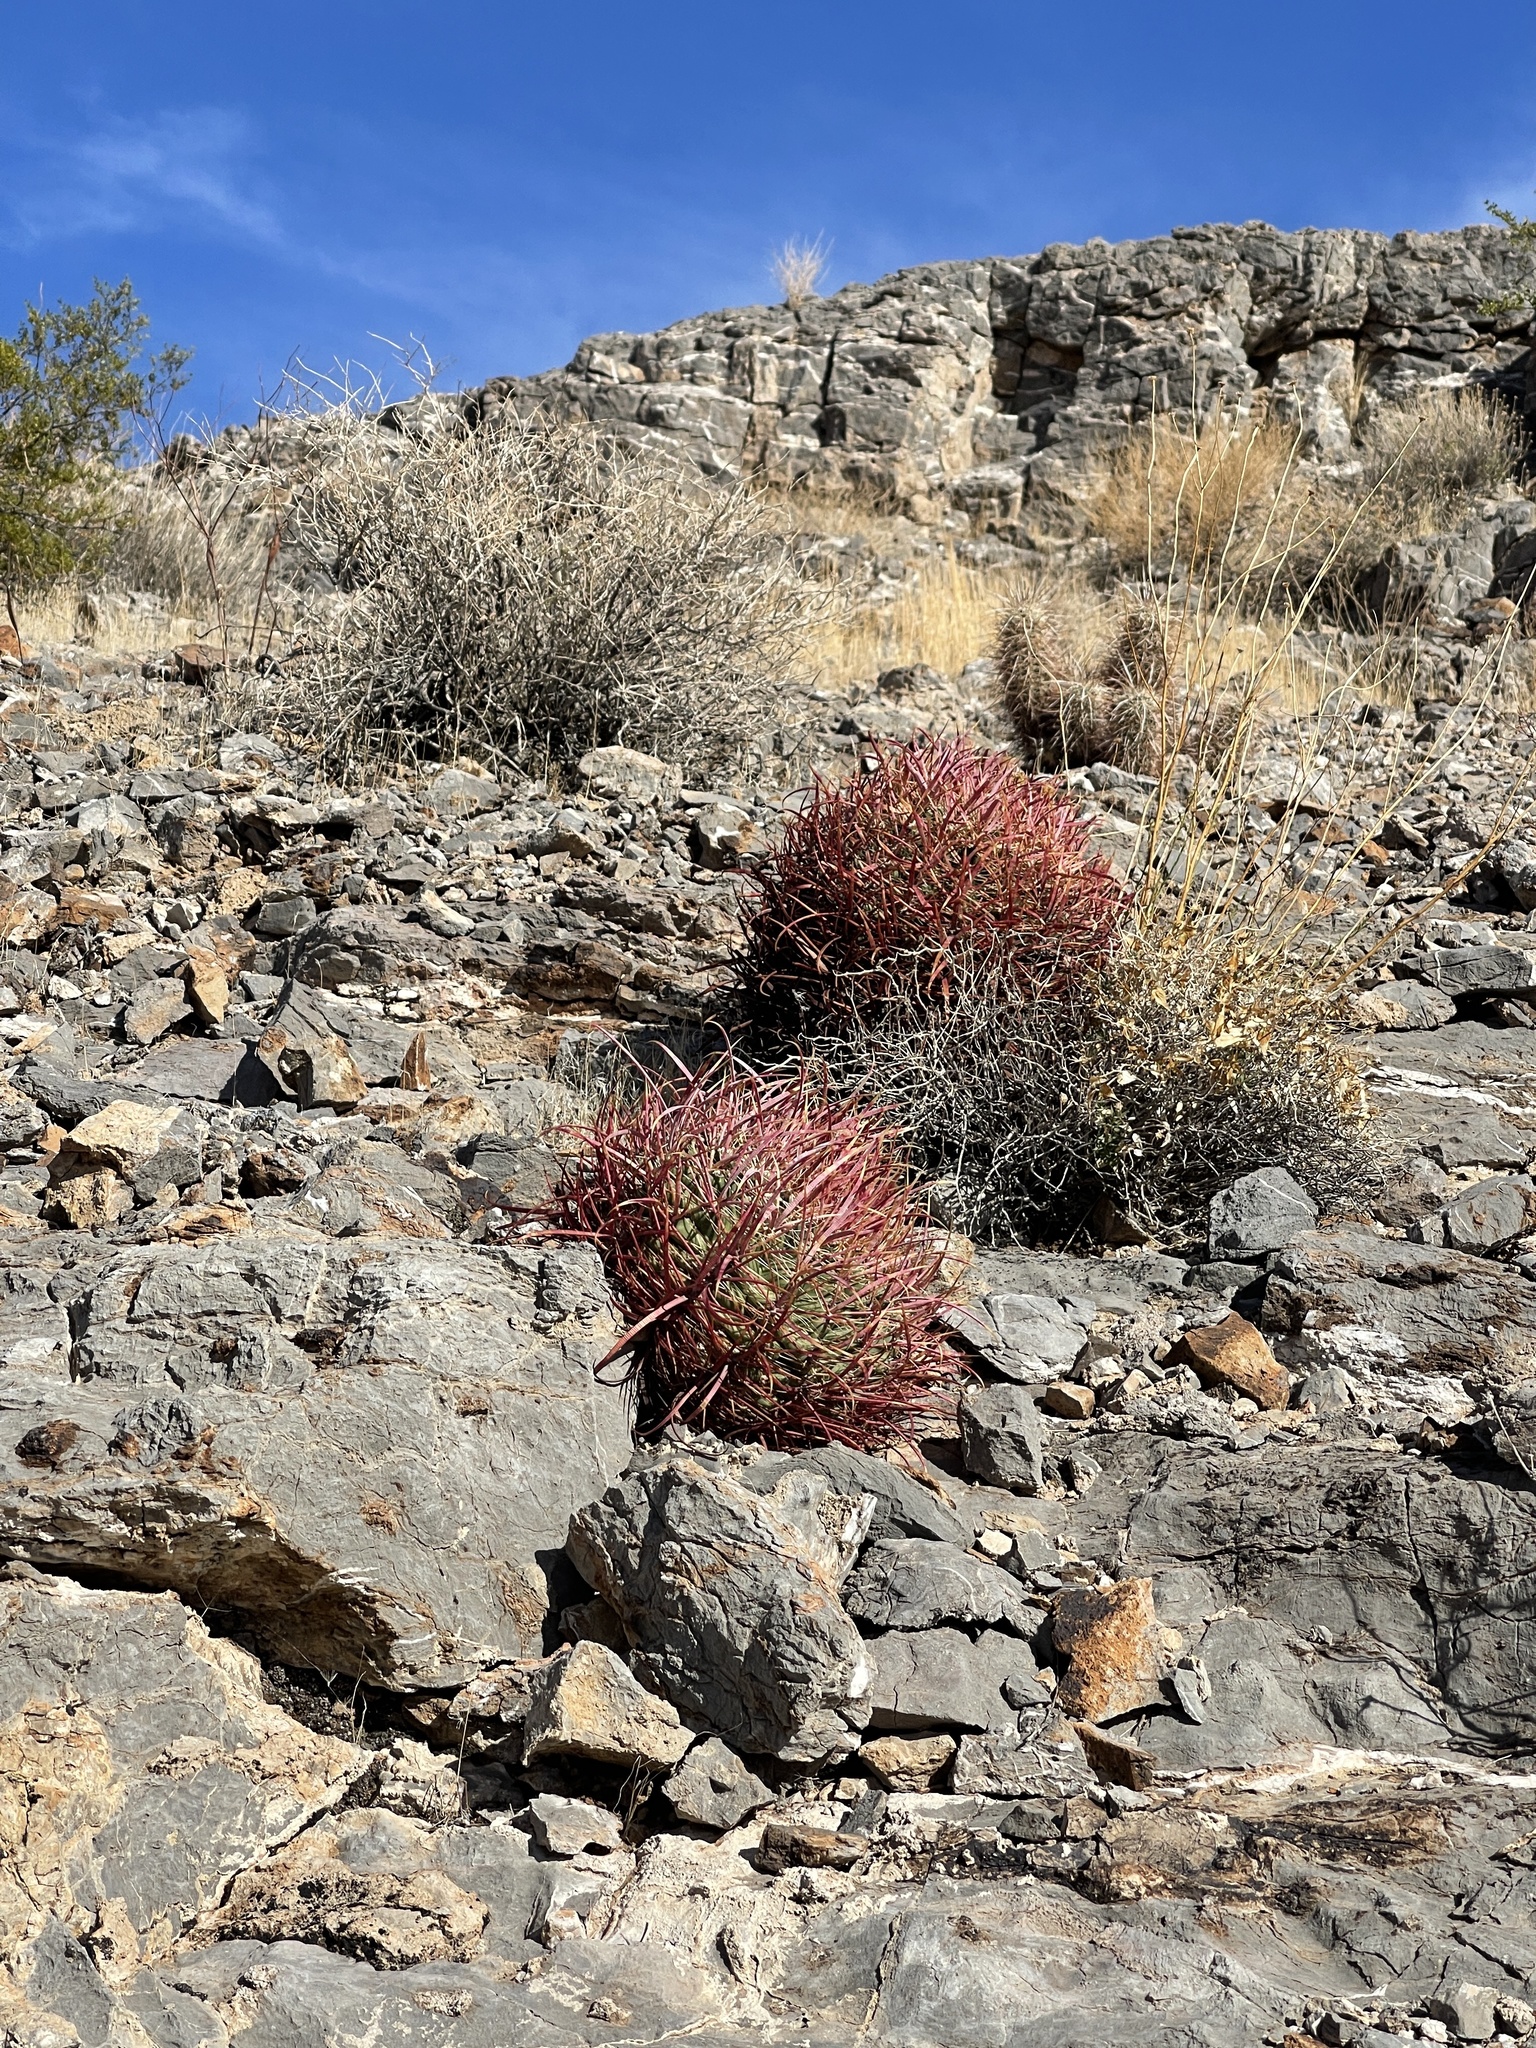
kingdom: Plantae
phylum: Tracheophyta
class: Magnoliopsida
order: Caryophyllales
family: Cactaceae
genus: Ferocactus
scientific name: Ferocactus cylindraceus
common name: California barrel cactus
